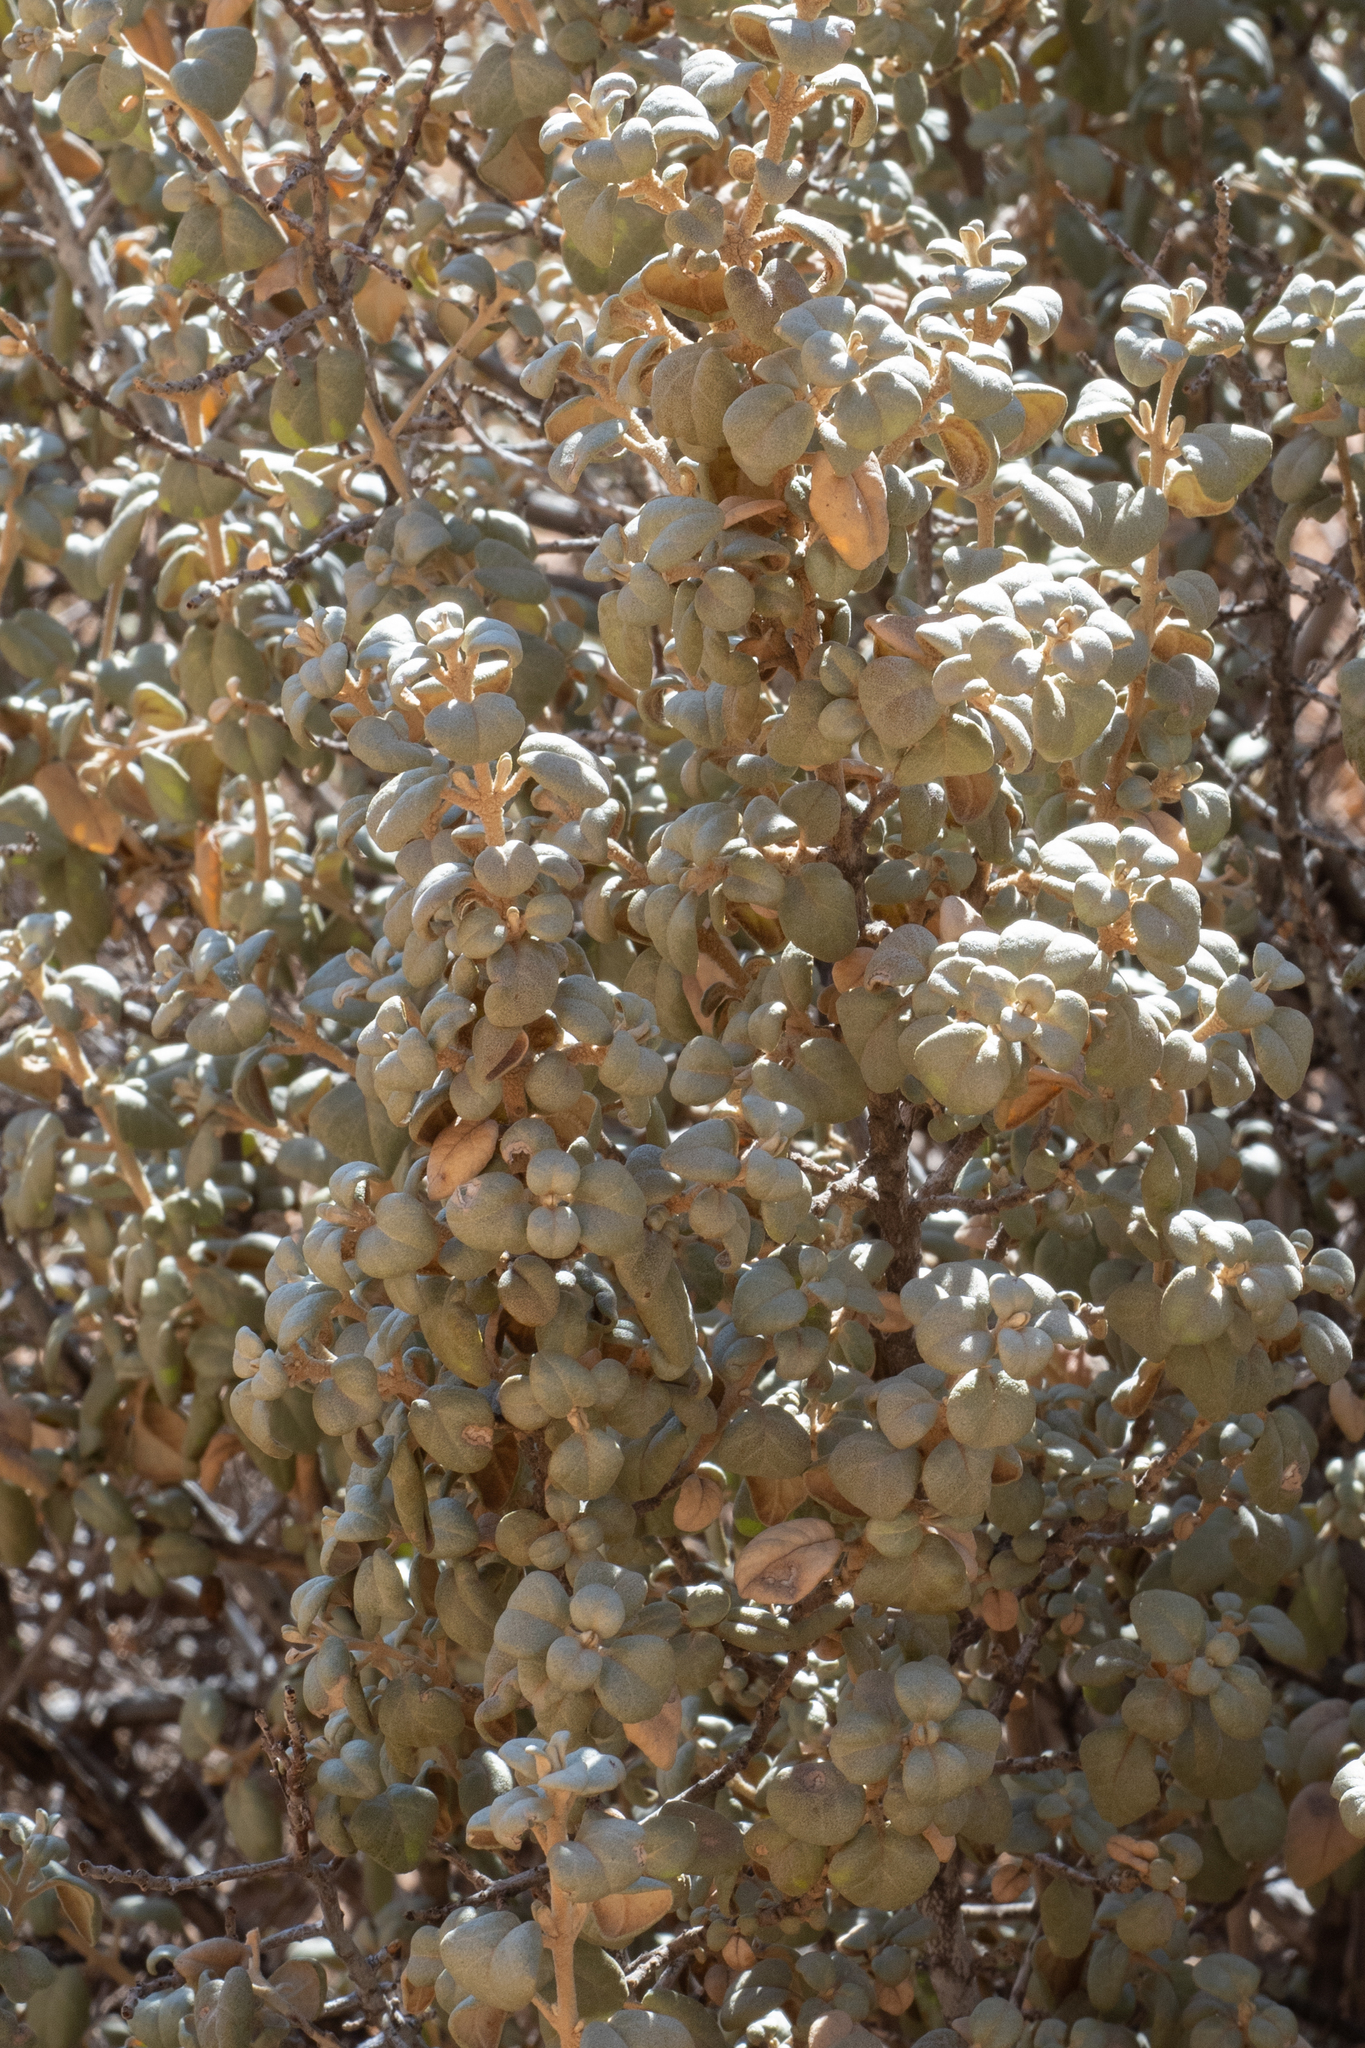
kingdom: Plantae
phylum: Tracheophyta
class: Magnoliopsida
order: Rosales
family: Elaeagnaceae
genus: Shepherdia
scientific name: Shepherdia rotundifolia
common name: Silverscale
